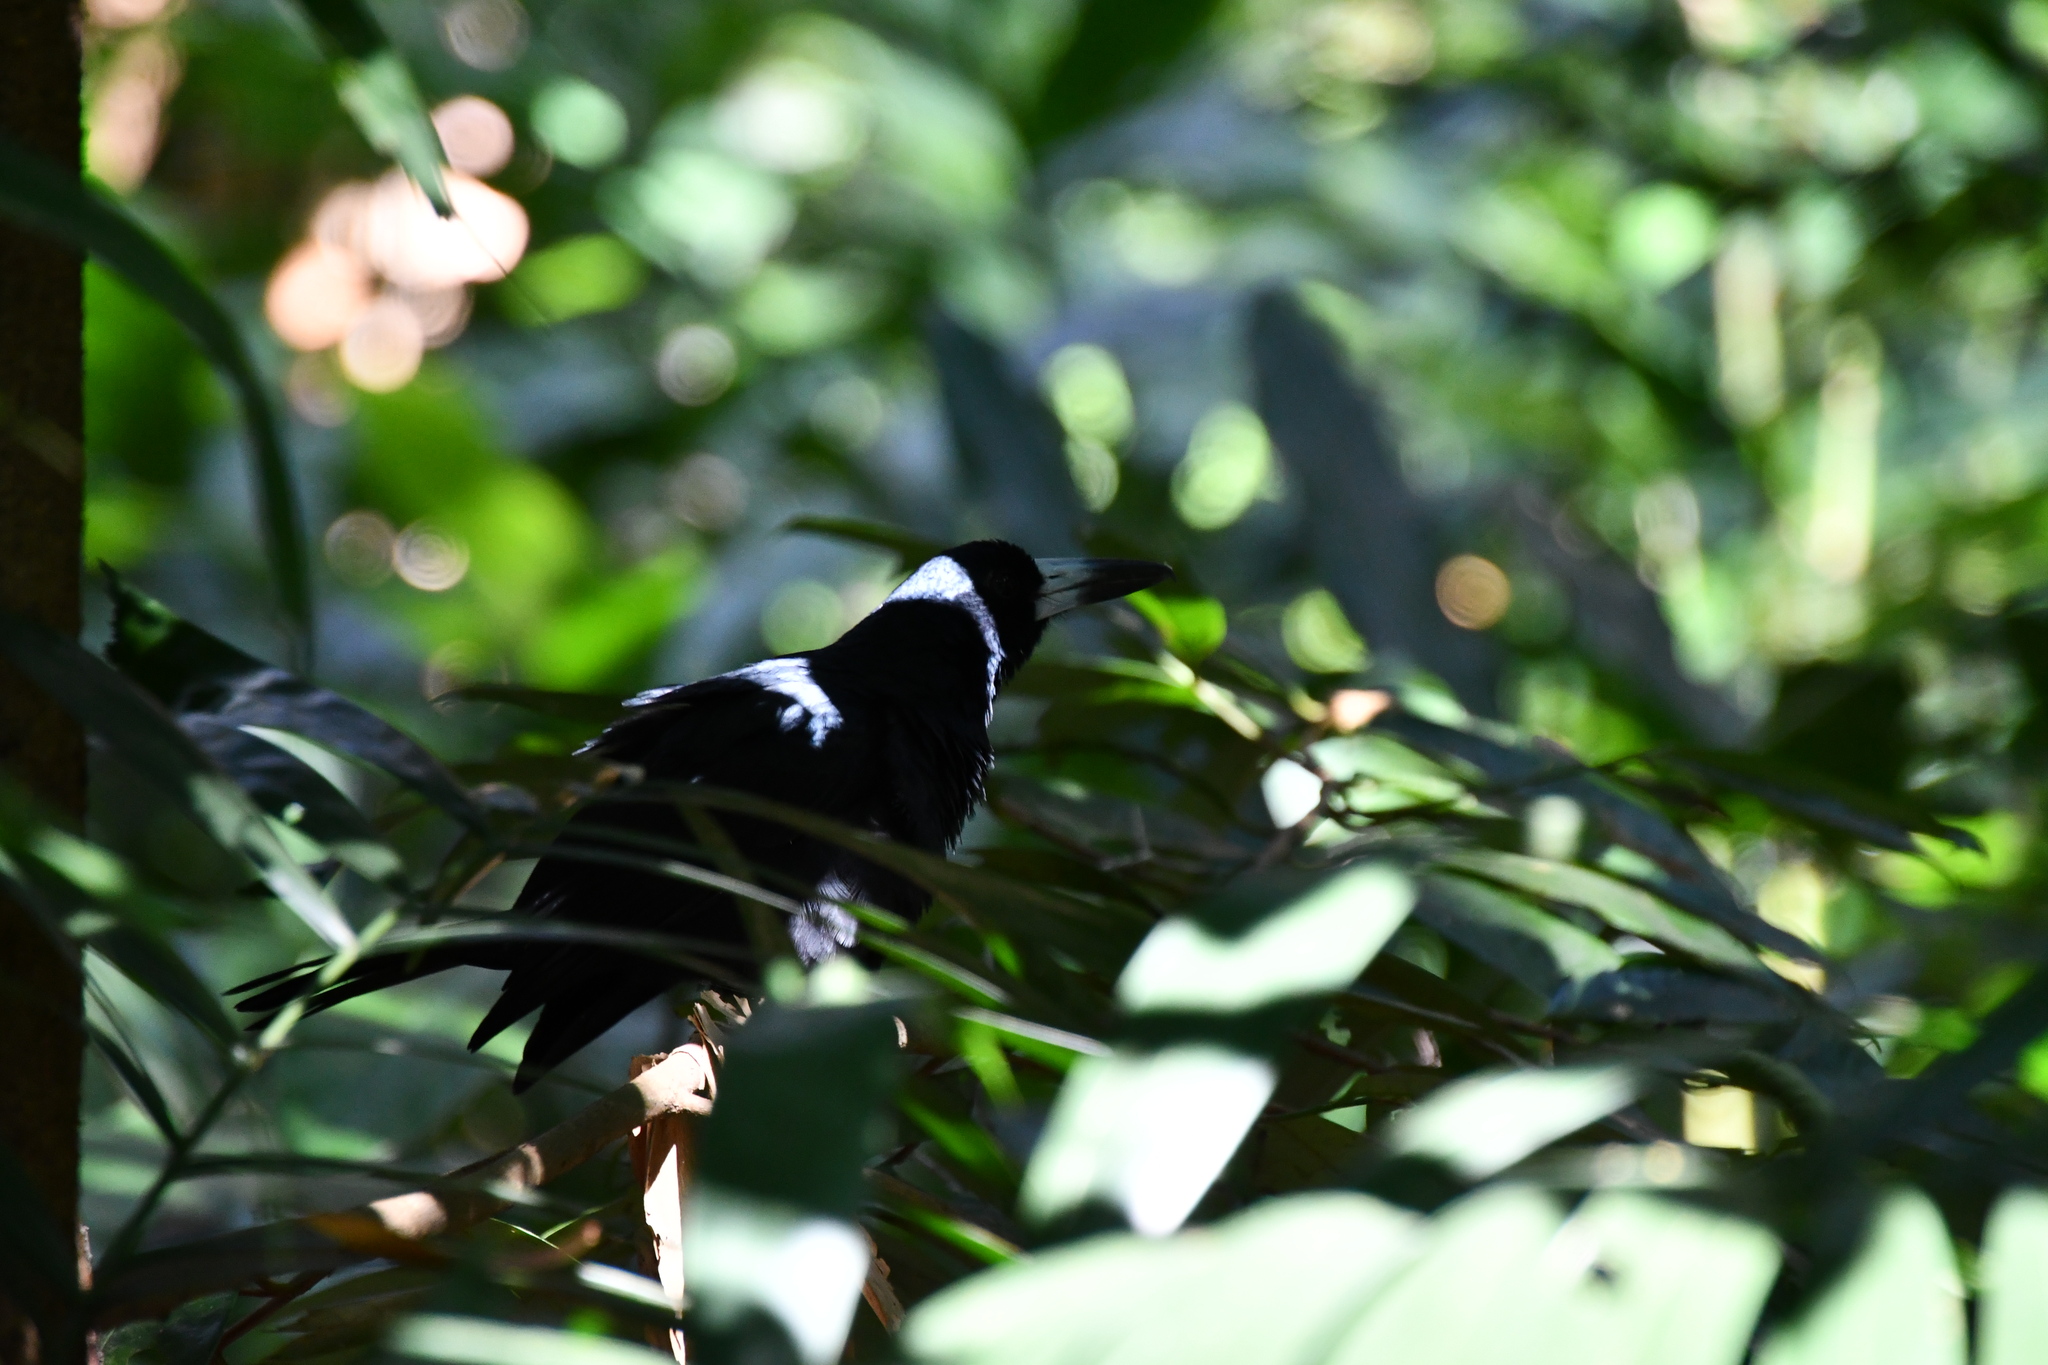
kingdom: Animalia
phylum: Chordata
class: Aves
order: Passeriformes
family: Artamidae
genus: Melloria
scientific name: Melloria quoyi
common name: Black butcherbird
